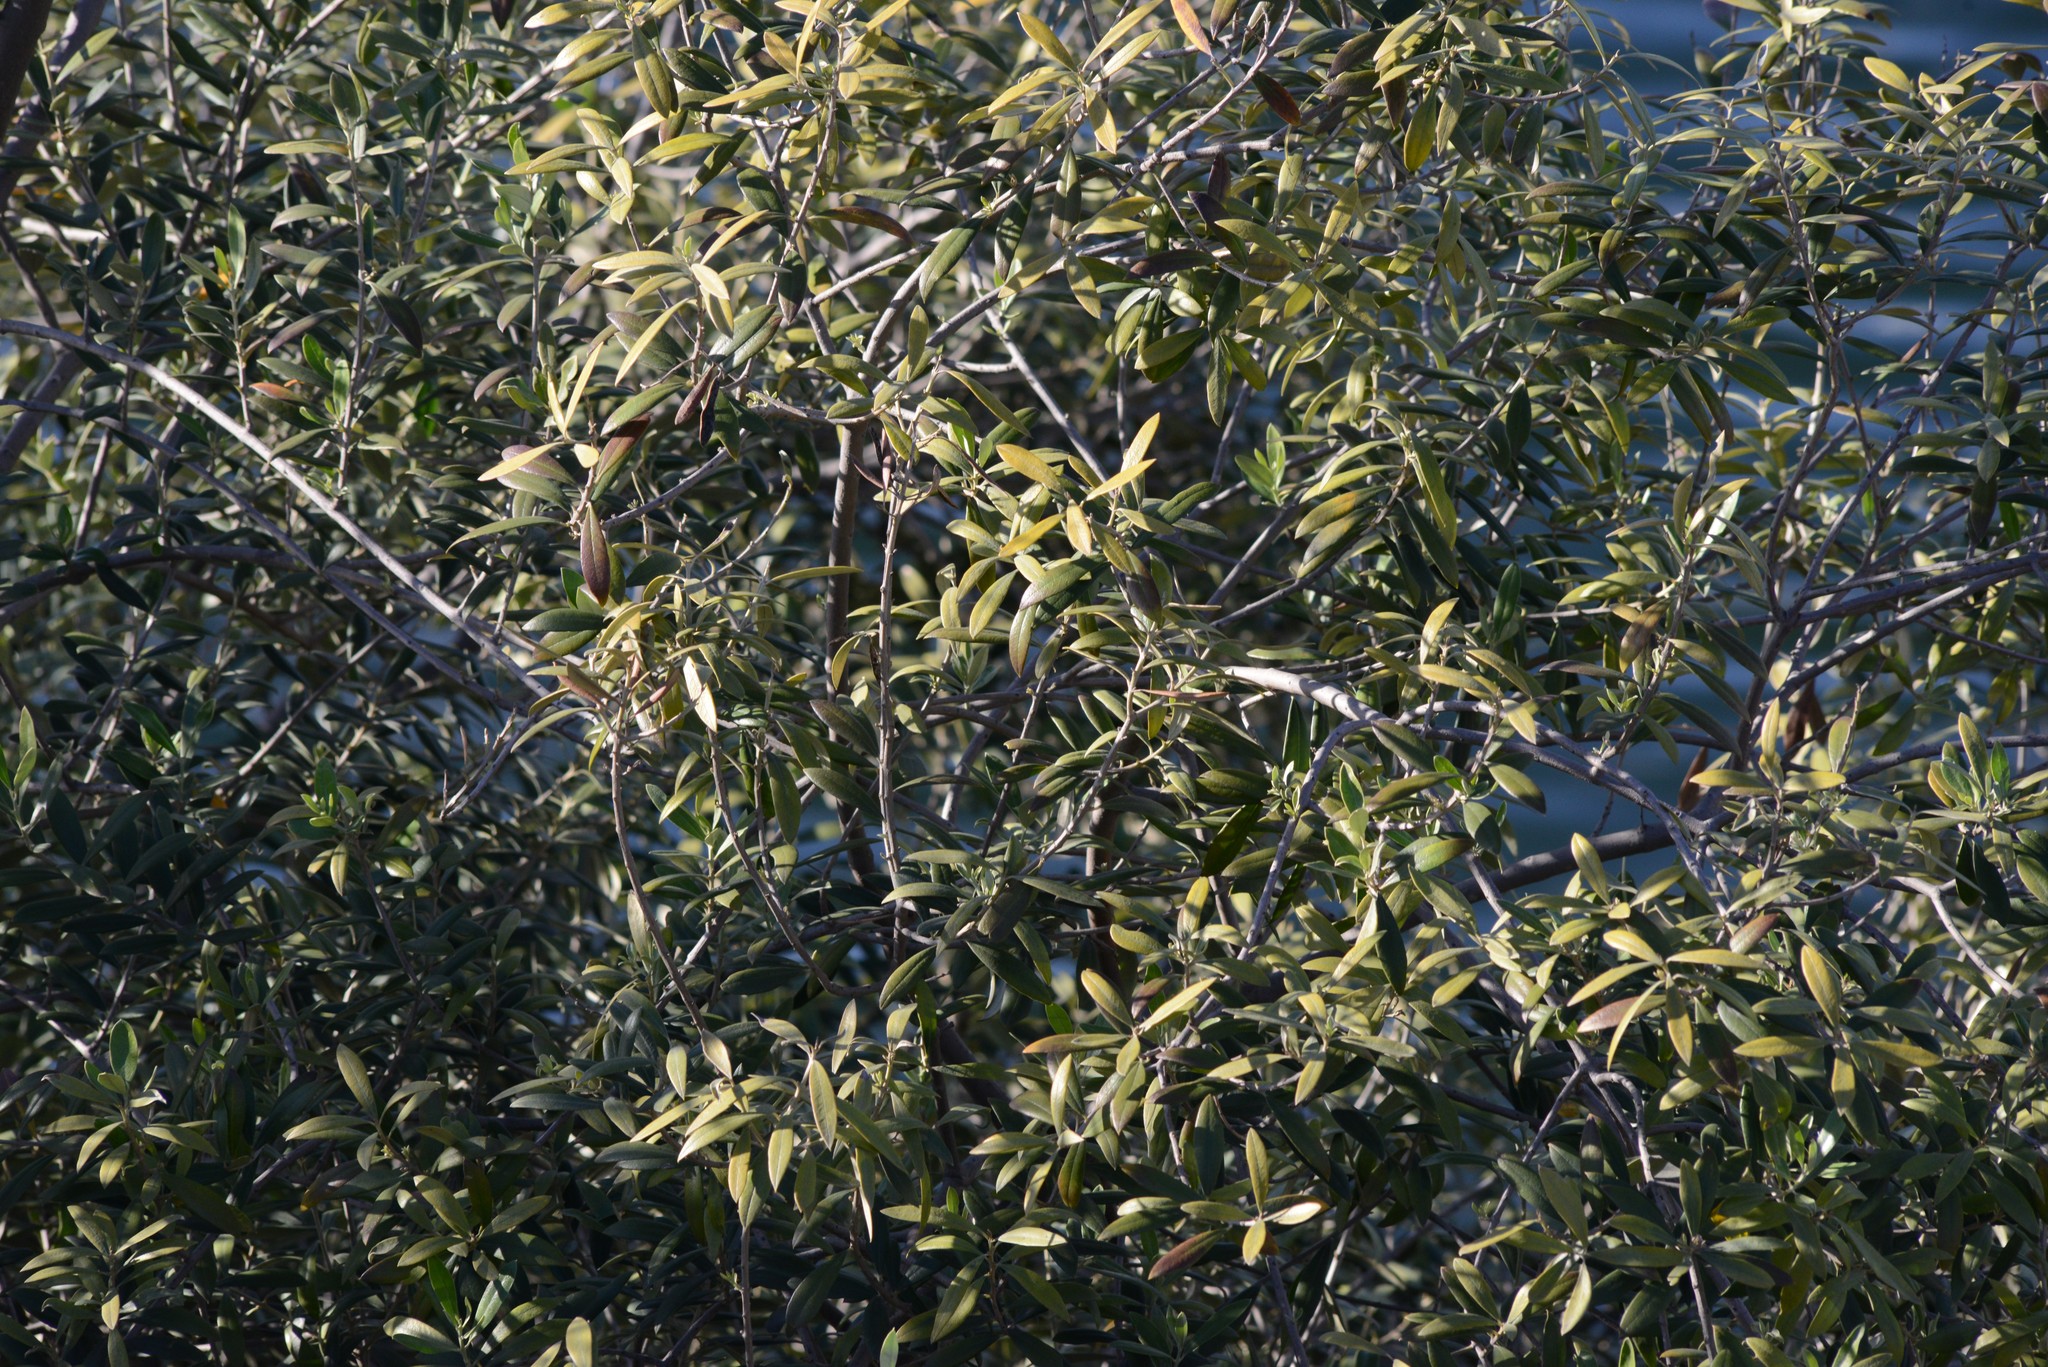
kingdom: Plantae
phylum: Tracheophyta
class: Magnoliopsida
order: Lamiales
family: Oleaceae
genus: Olea
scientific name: Olea europaea
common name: Olive
